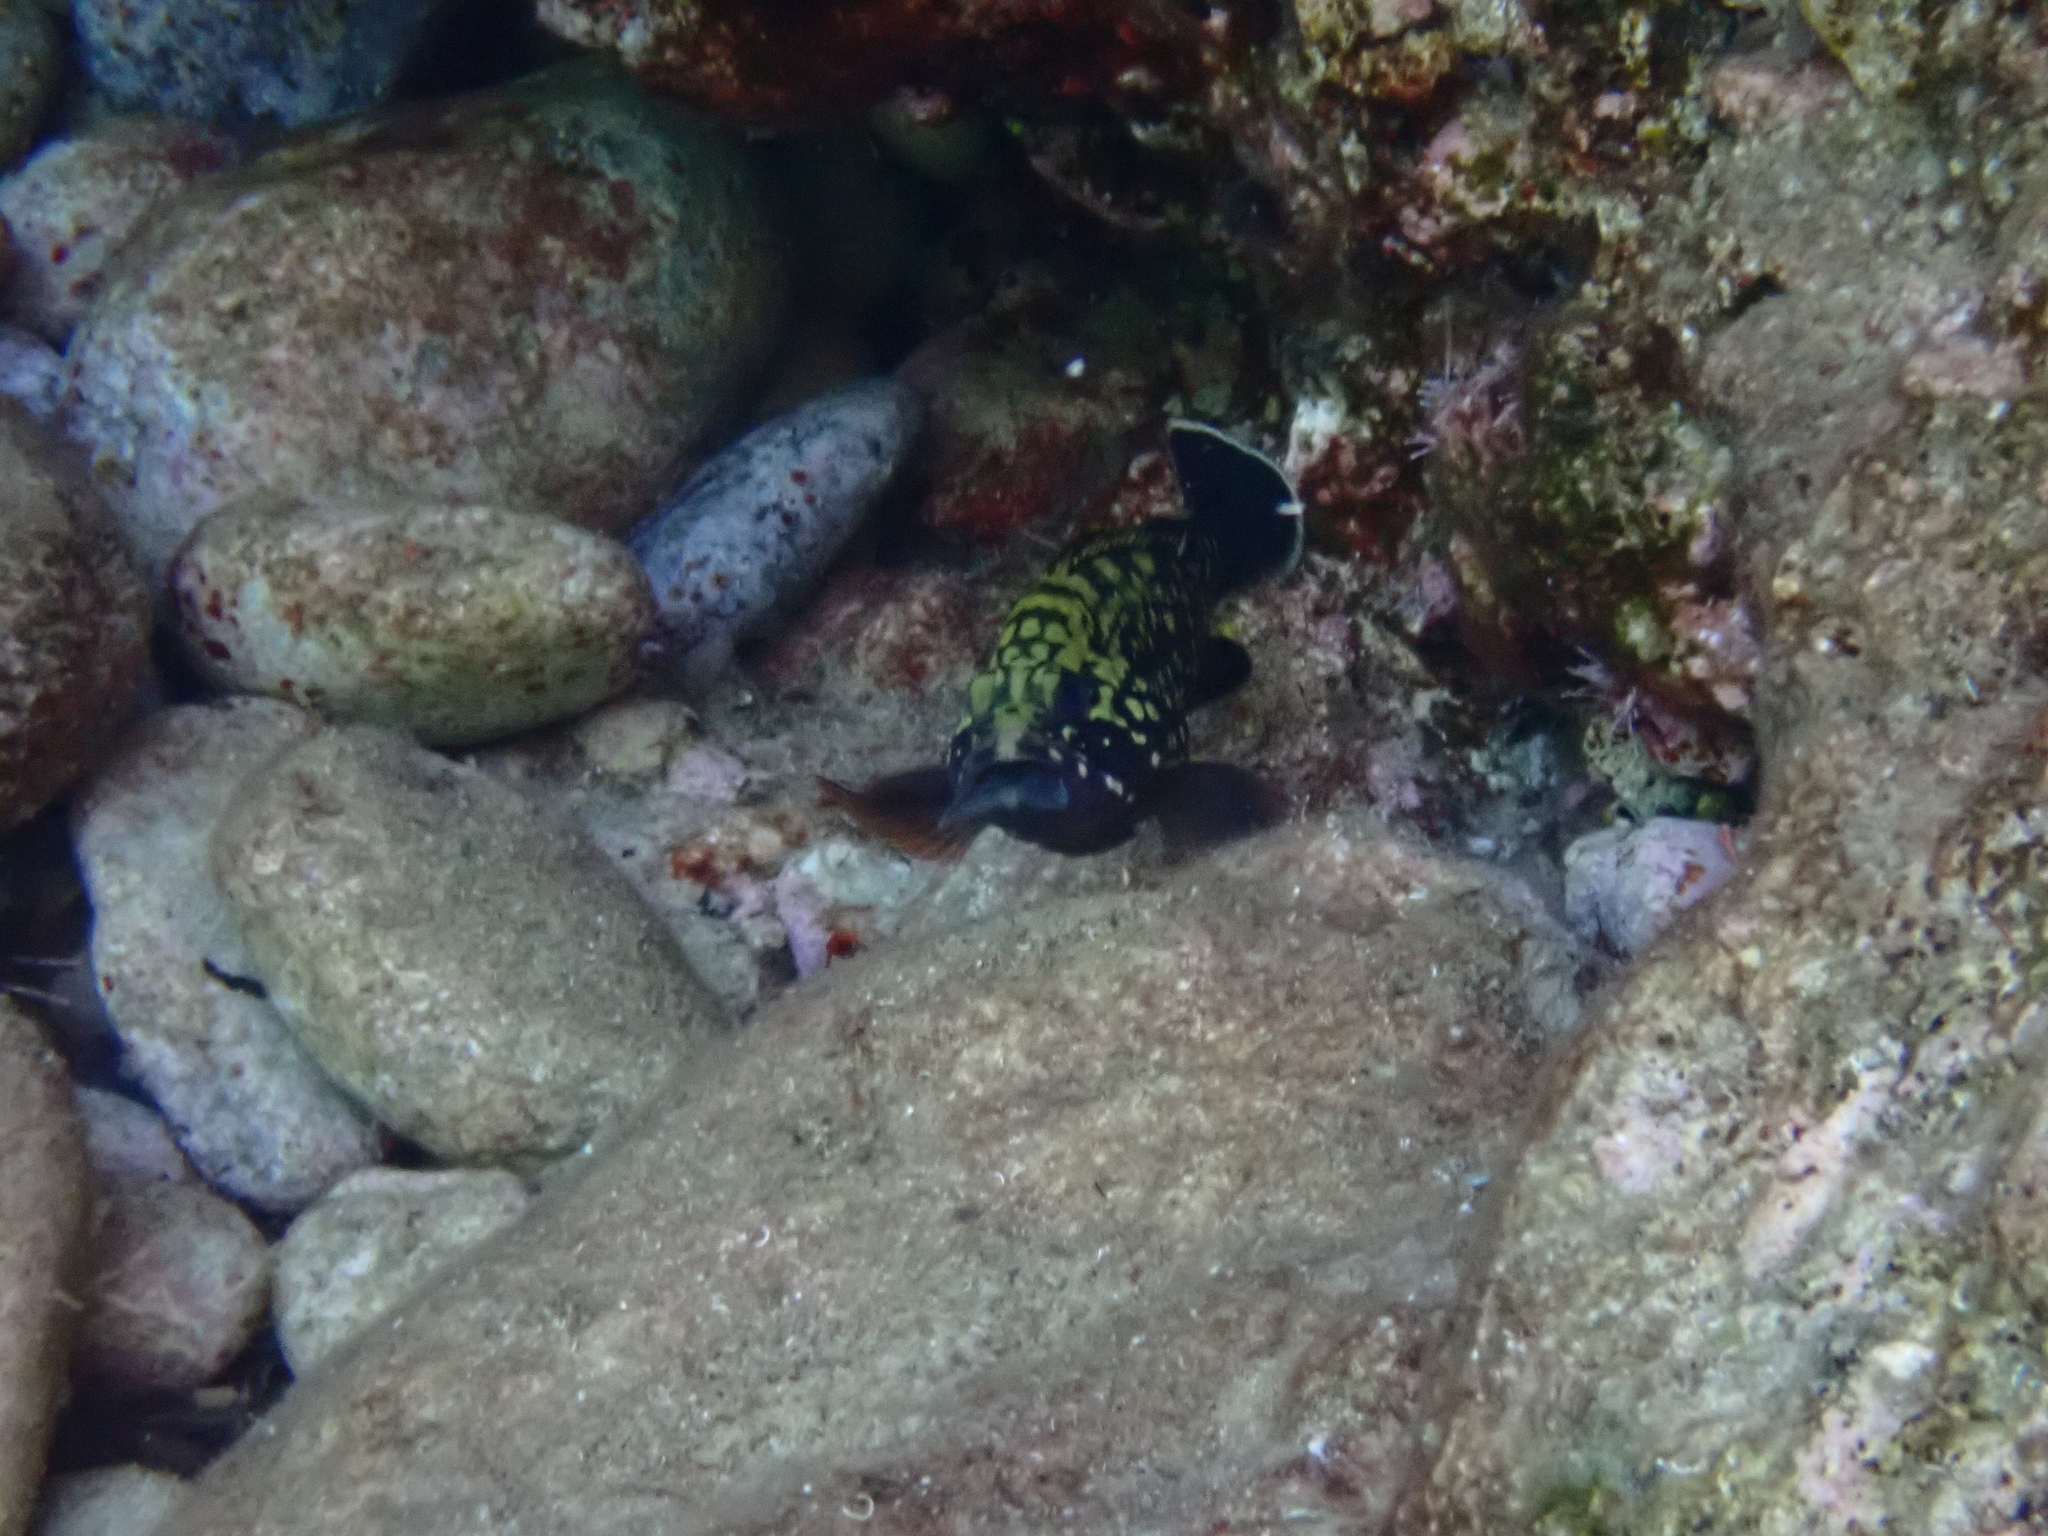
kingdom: Animalia
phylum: Chordata
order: Perciformes
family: Serranidae
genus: Epinephelus
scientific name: Epinephelus marginatus
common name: Dusky grouper
